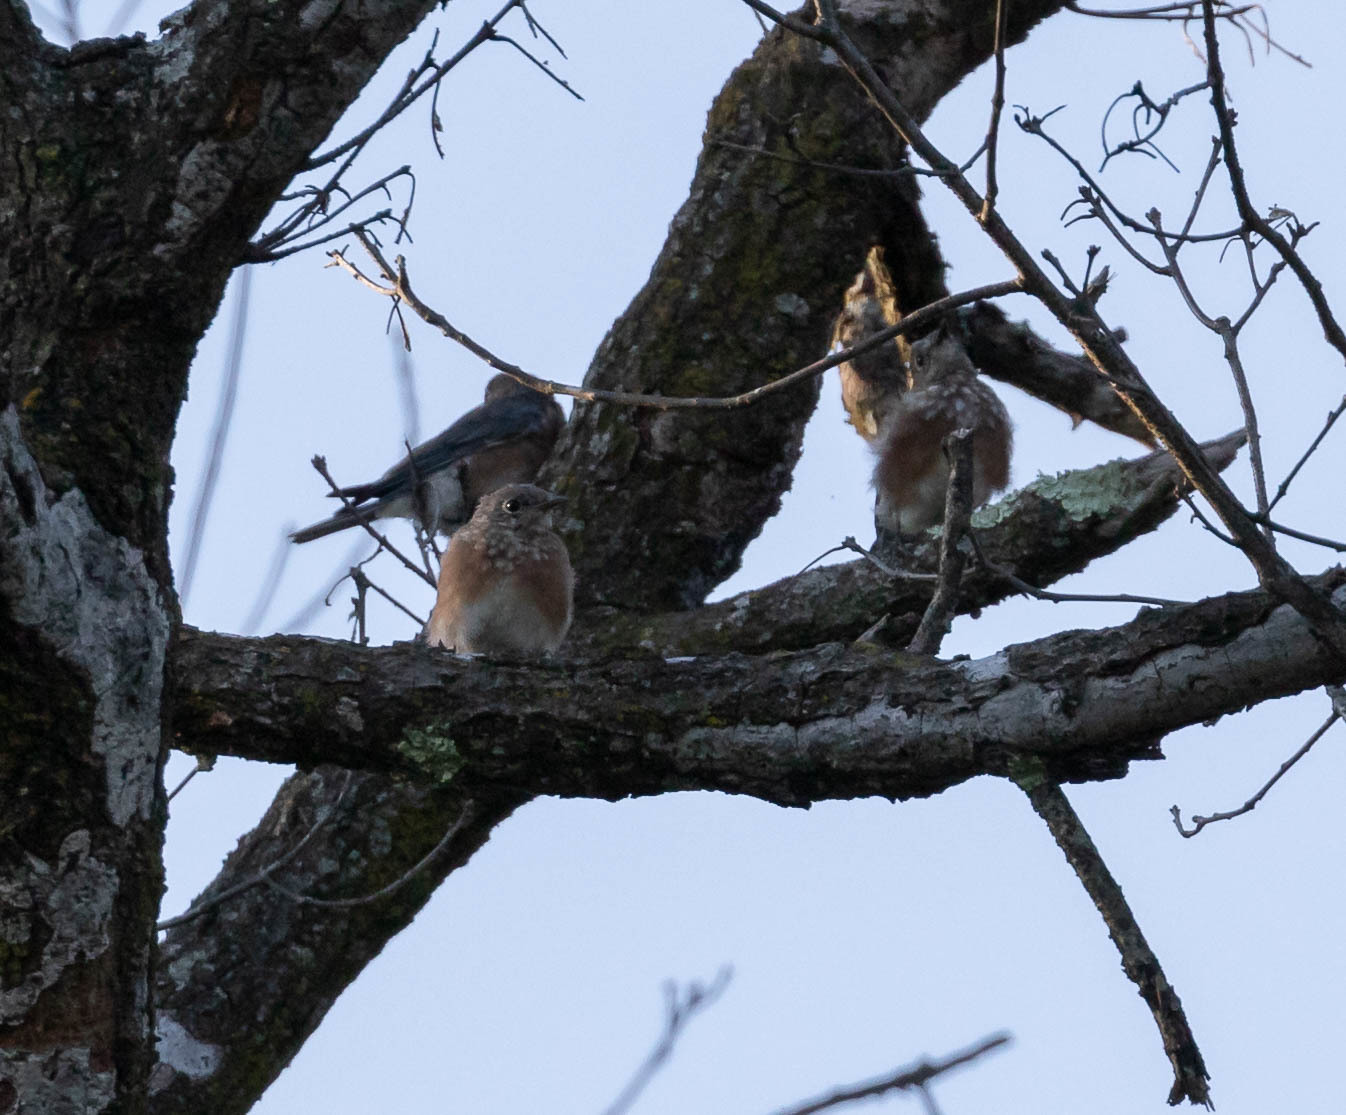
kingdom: Animalia
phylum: Chordata
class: Aves
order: Passeriformes
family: Turdidae
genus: Sialia
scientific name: Sialia sialis
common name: Eastern bluebird
